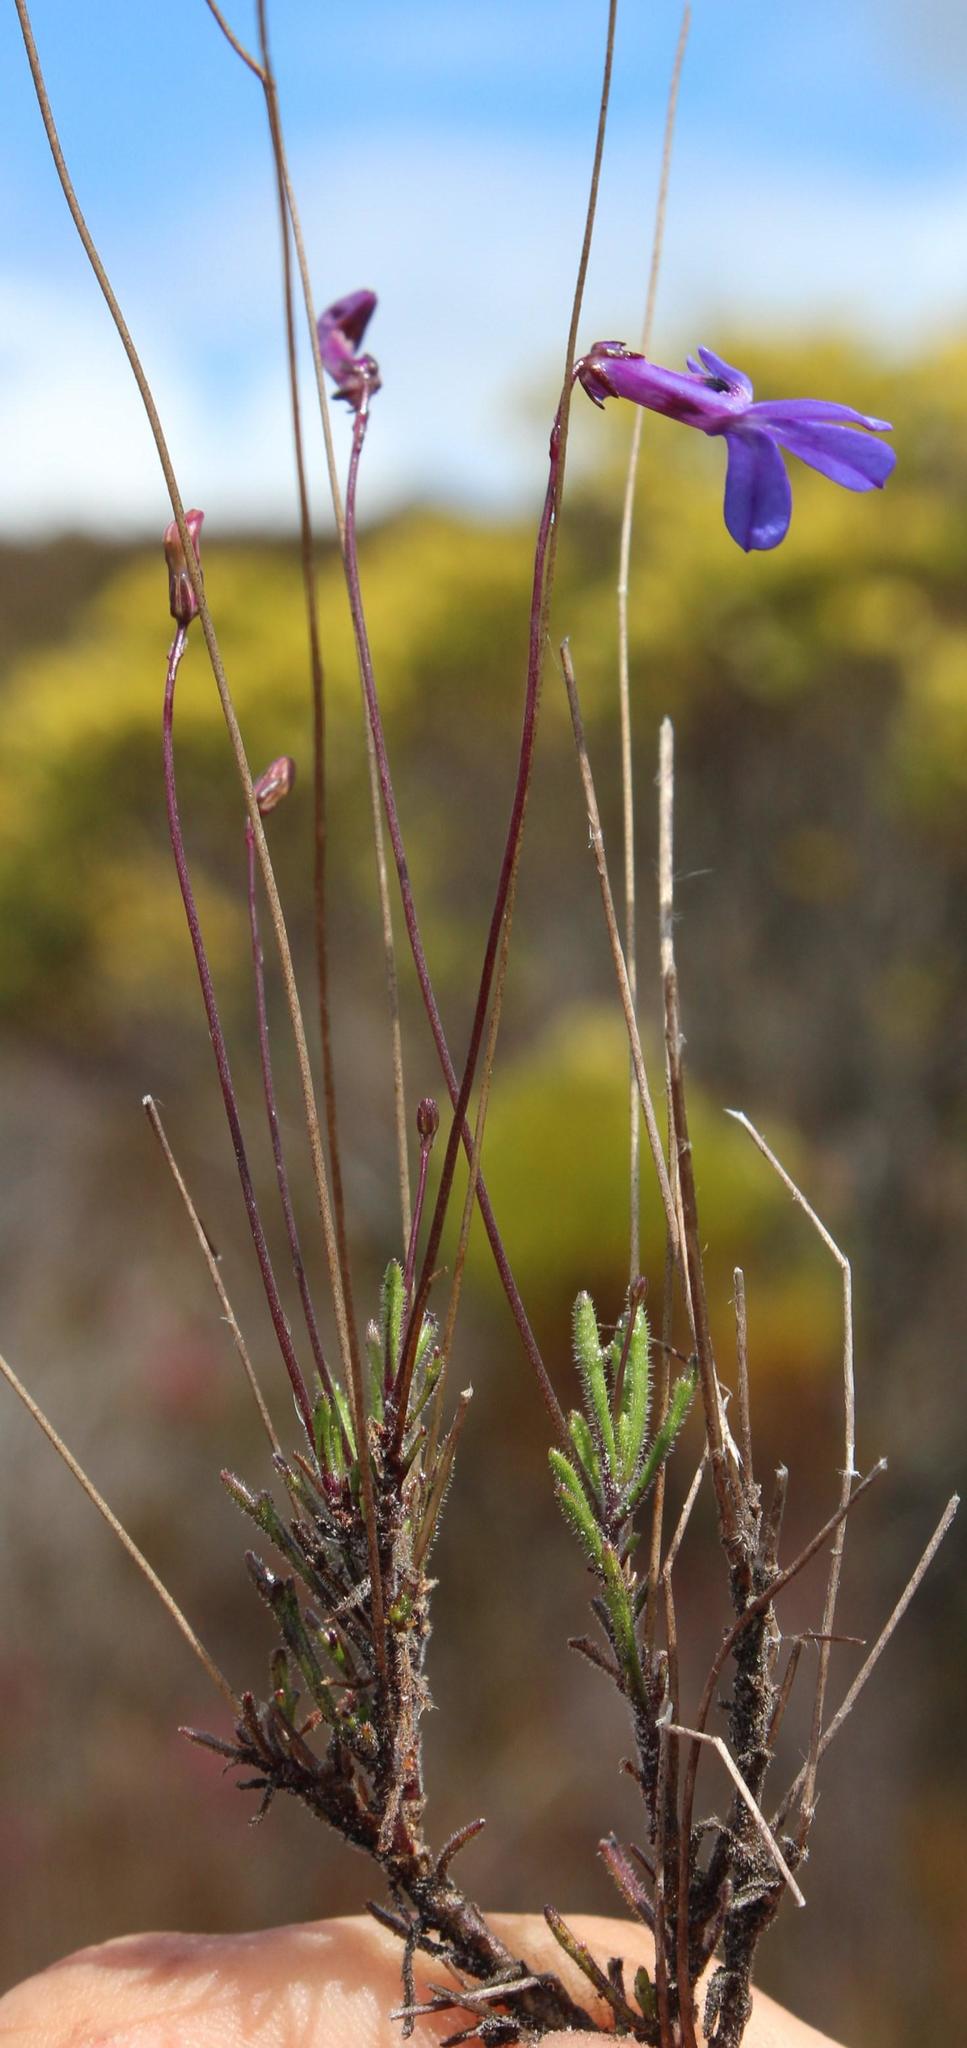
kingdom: Plantae
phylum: Tracheophyta
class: Magnoliopsida
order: Asterales
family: Campanulaceae
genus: Lobelia
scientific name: Lobelia chamaepitys
